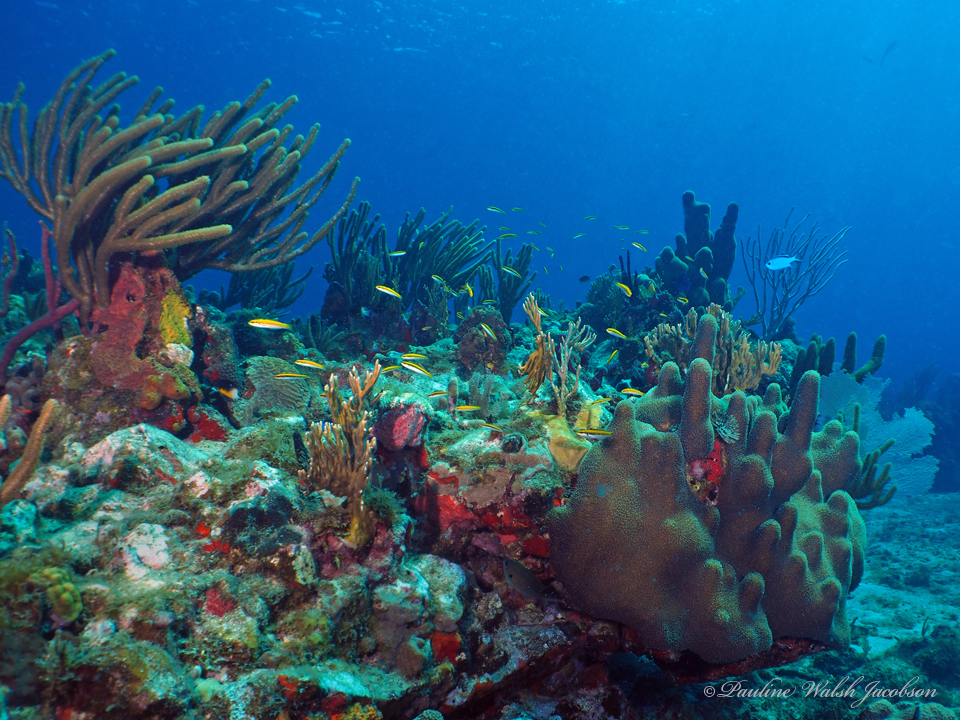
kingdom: Animalia
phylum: Chordata
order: Perciformes
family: Labridae
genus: Thalassoma
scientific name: Thalassoma bifasciatum
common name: Bluehead wrasse
